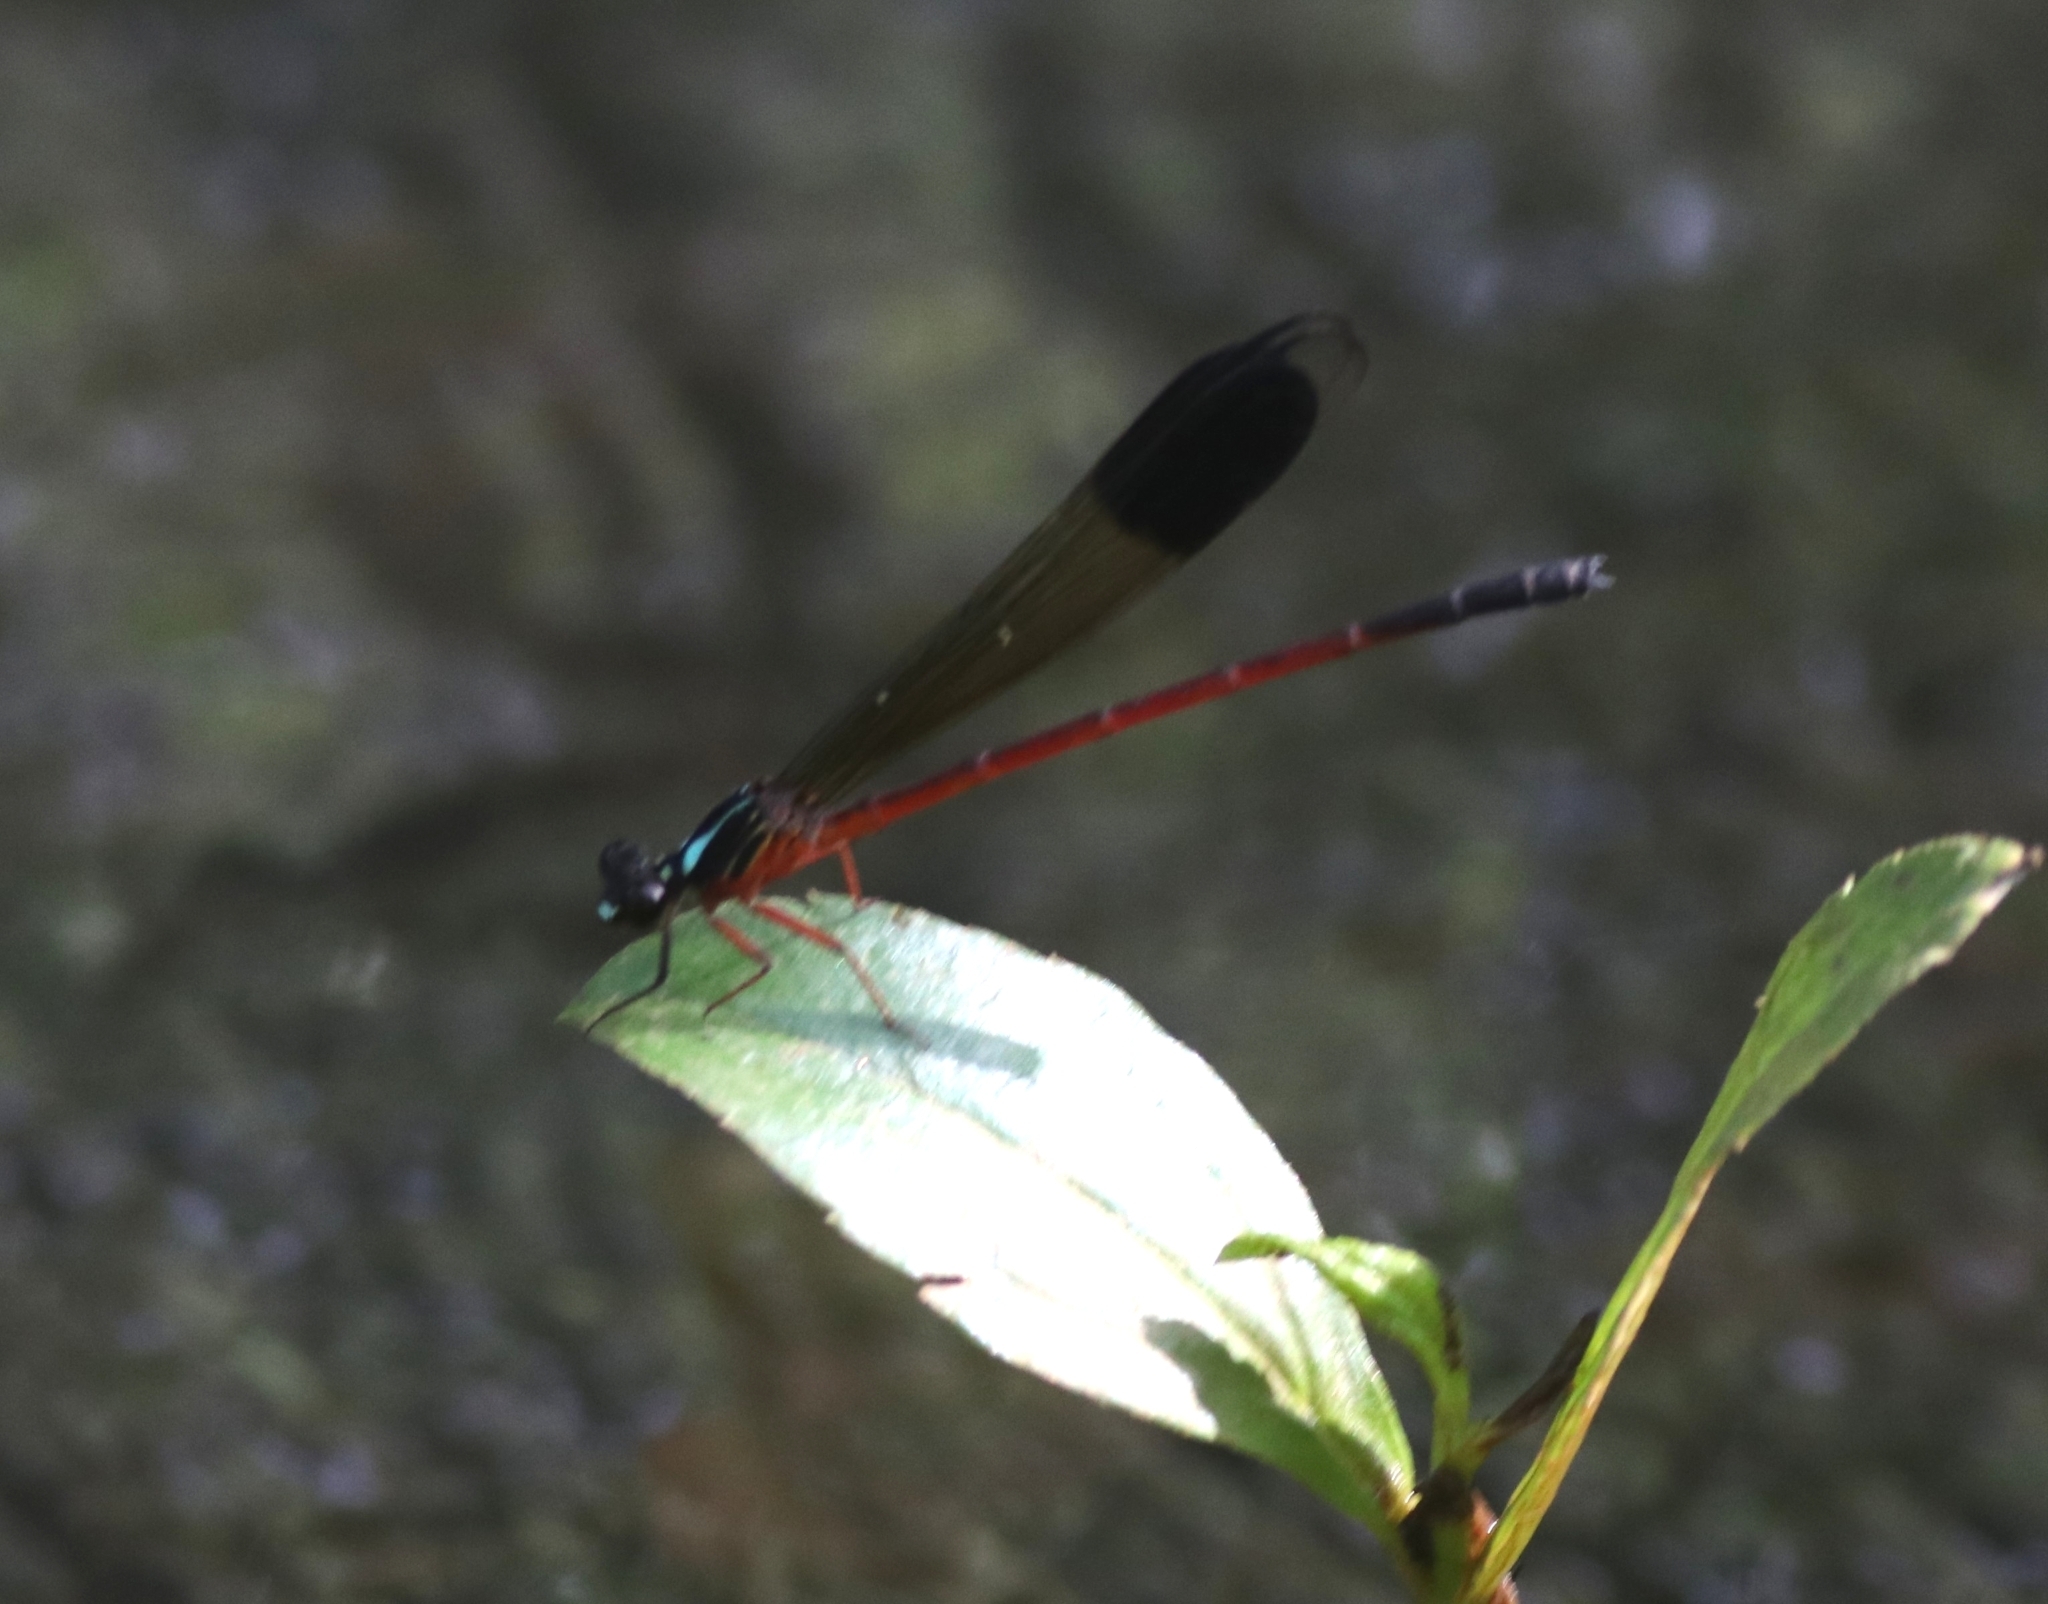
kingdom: Animalia
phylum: Arthropoda
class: Insecta
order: Odonata
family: Euphaeidae
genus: Euphaea
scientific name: Euphaea fraseri
